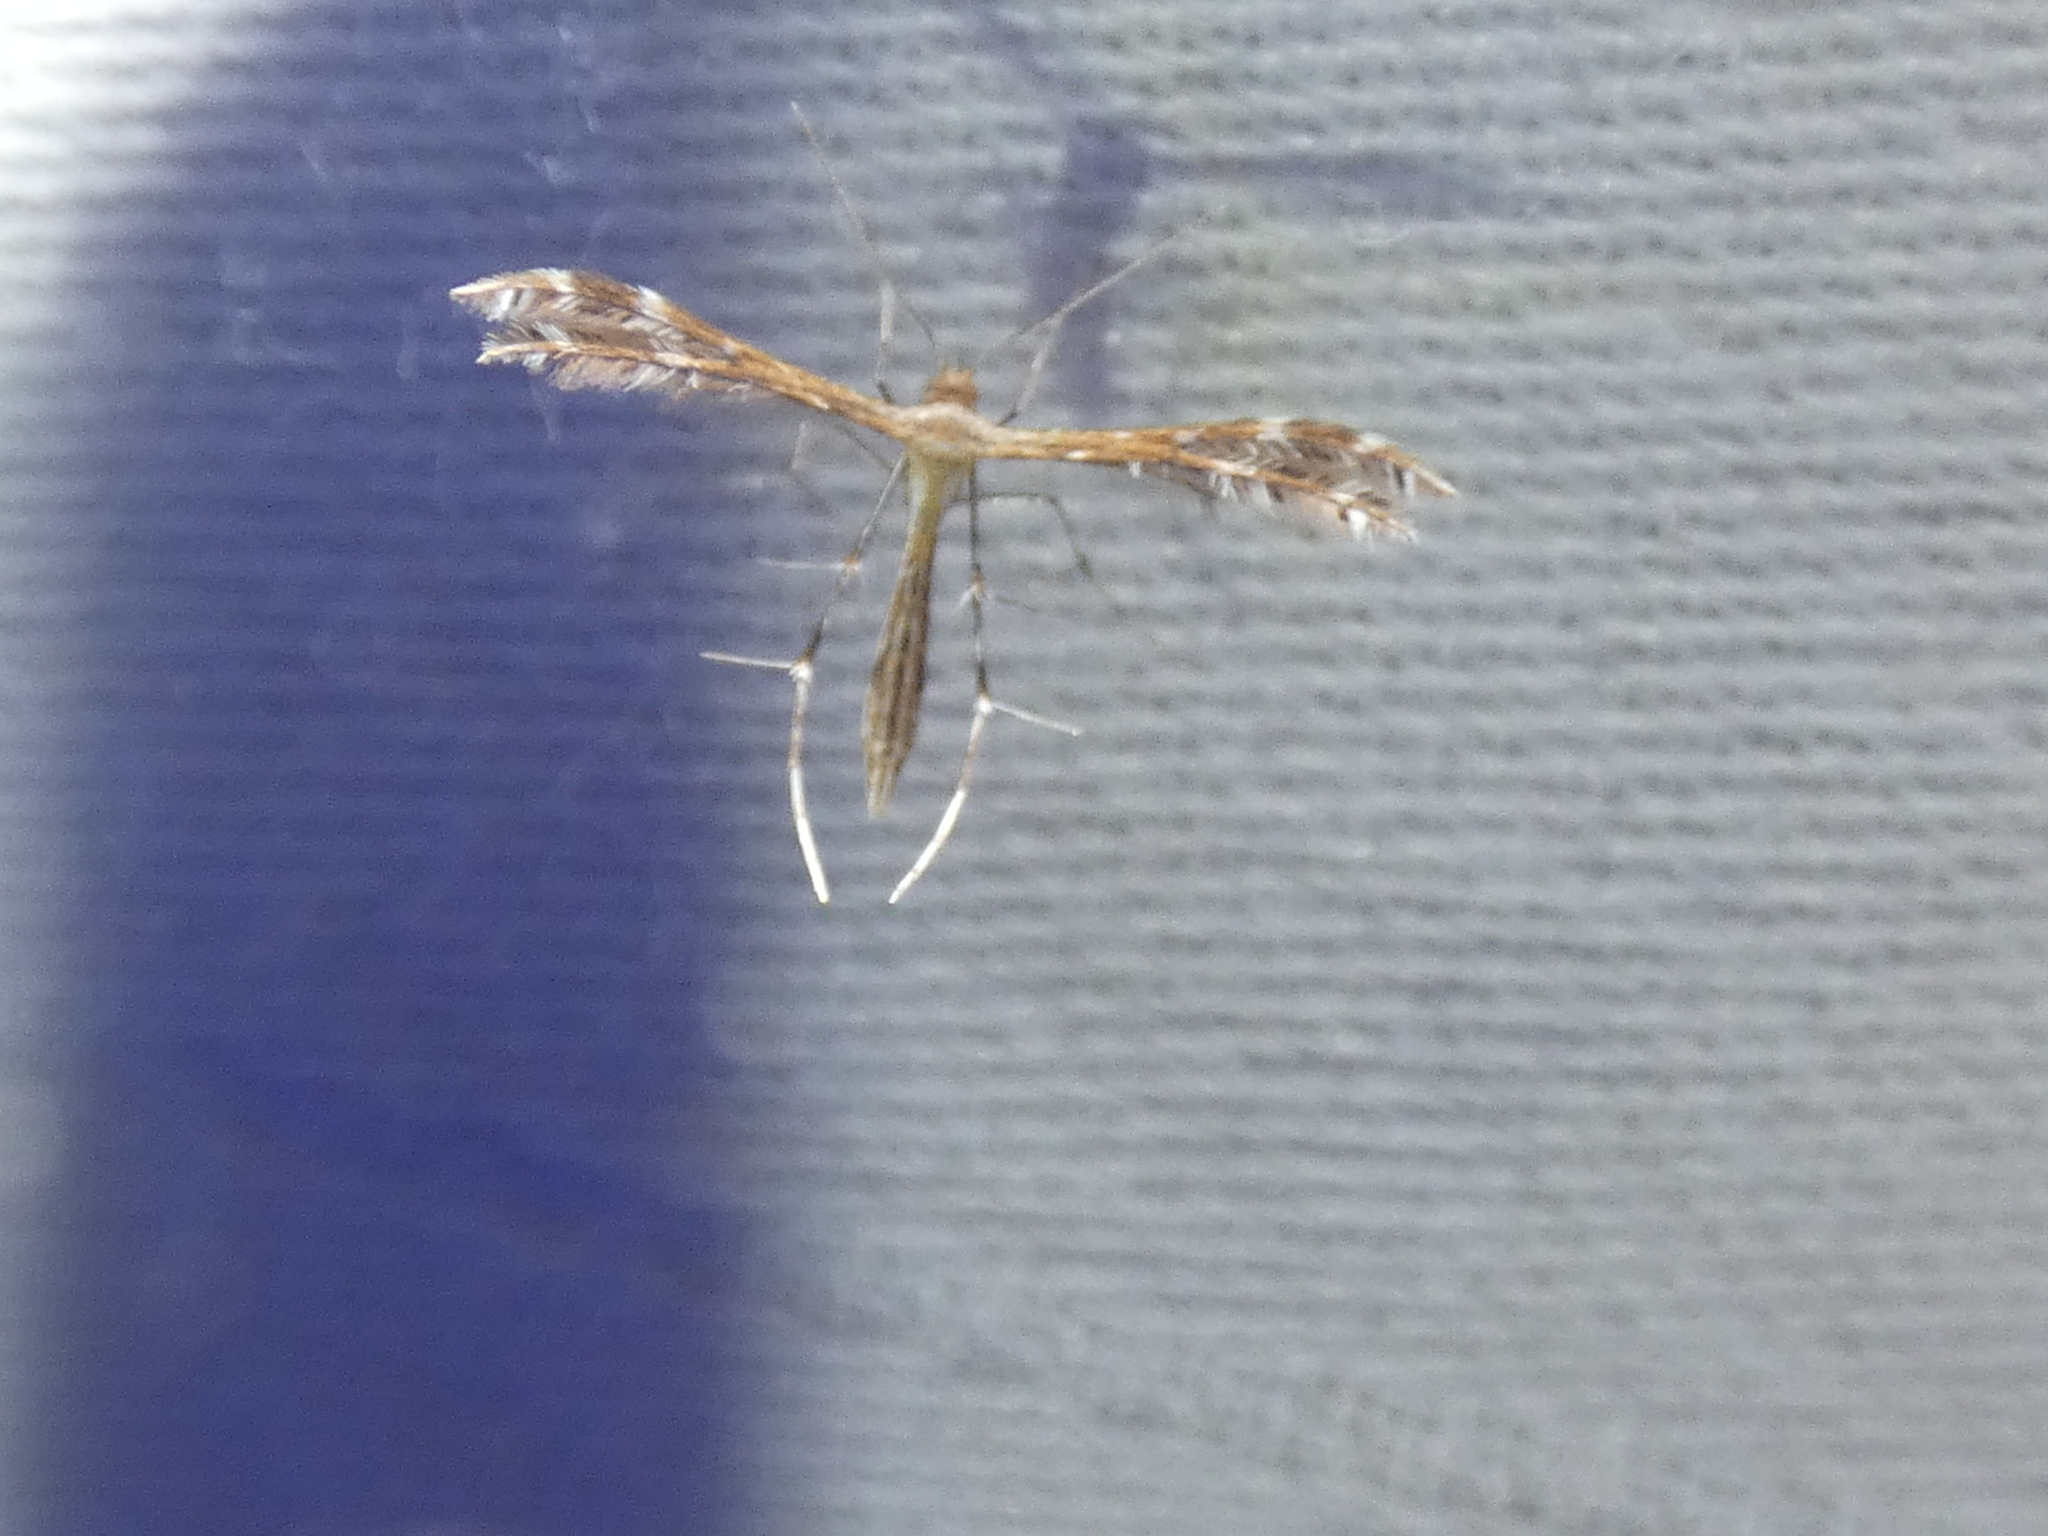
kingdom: Animalia
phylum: Arthropoda
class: Insecta
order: Lepidoptera
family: Pterophoridae
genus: Buckleria
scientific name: Buckleria parvulus
